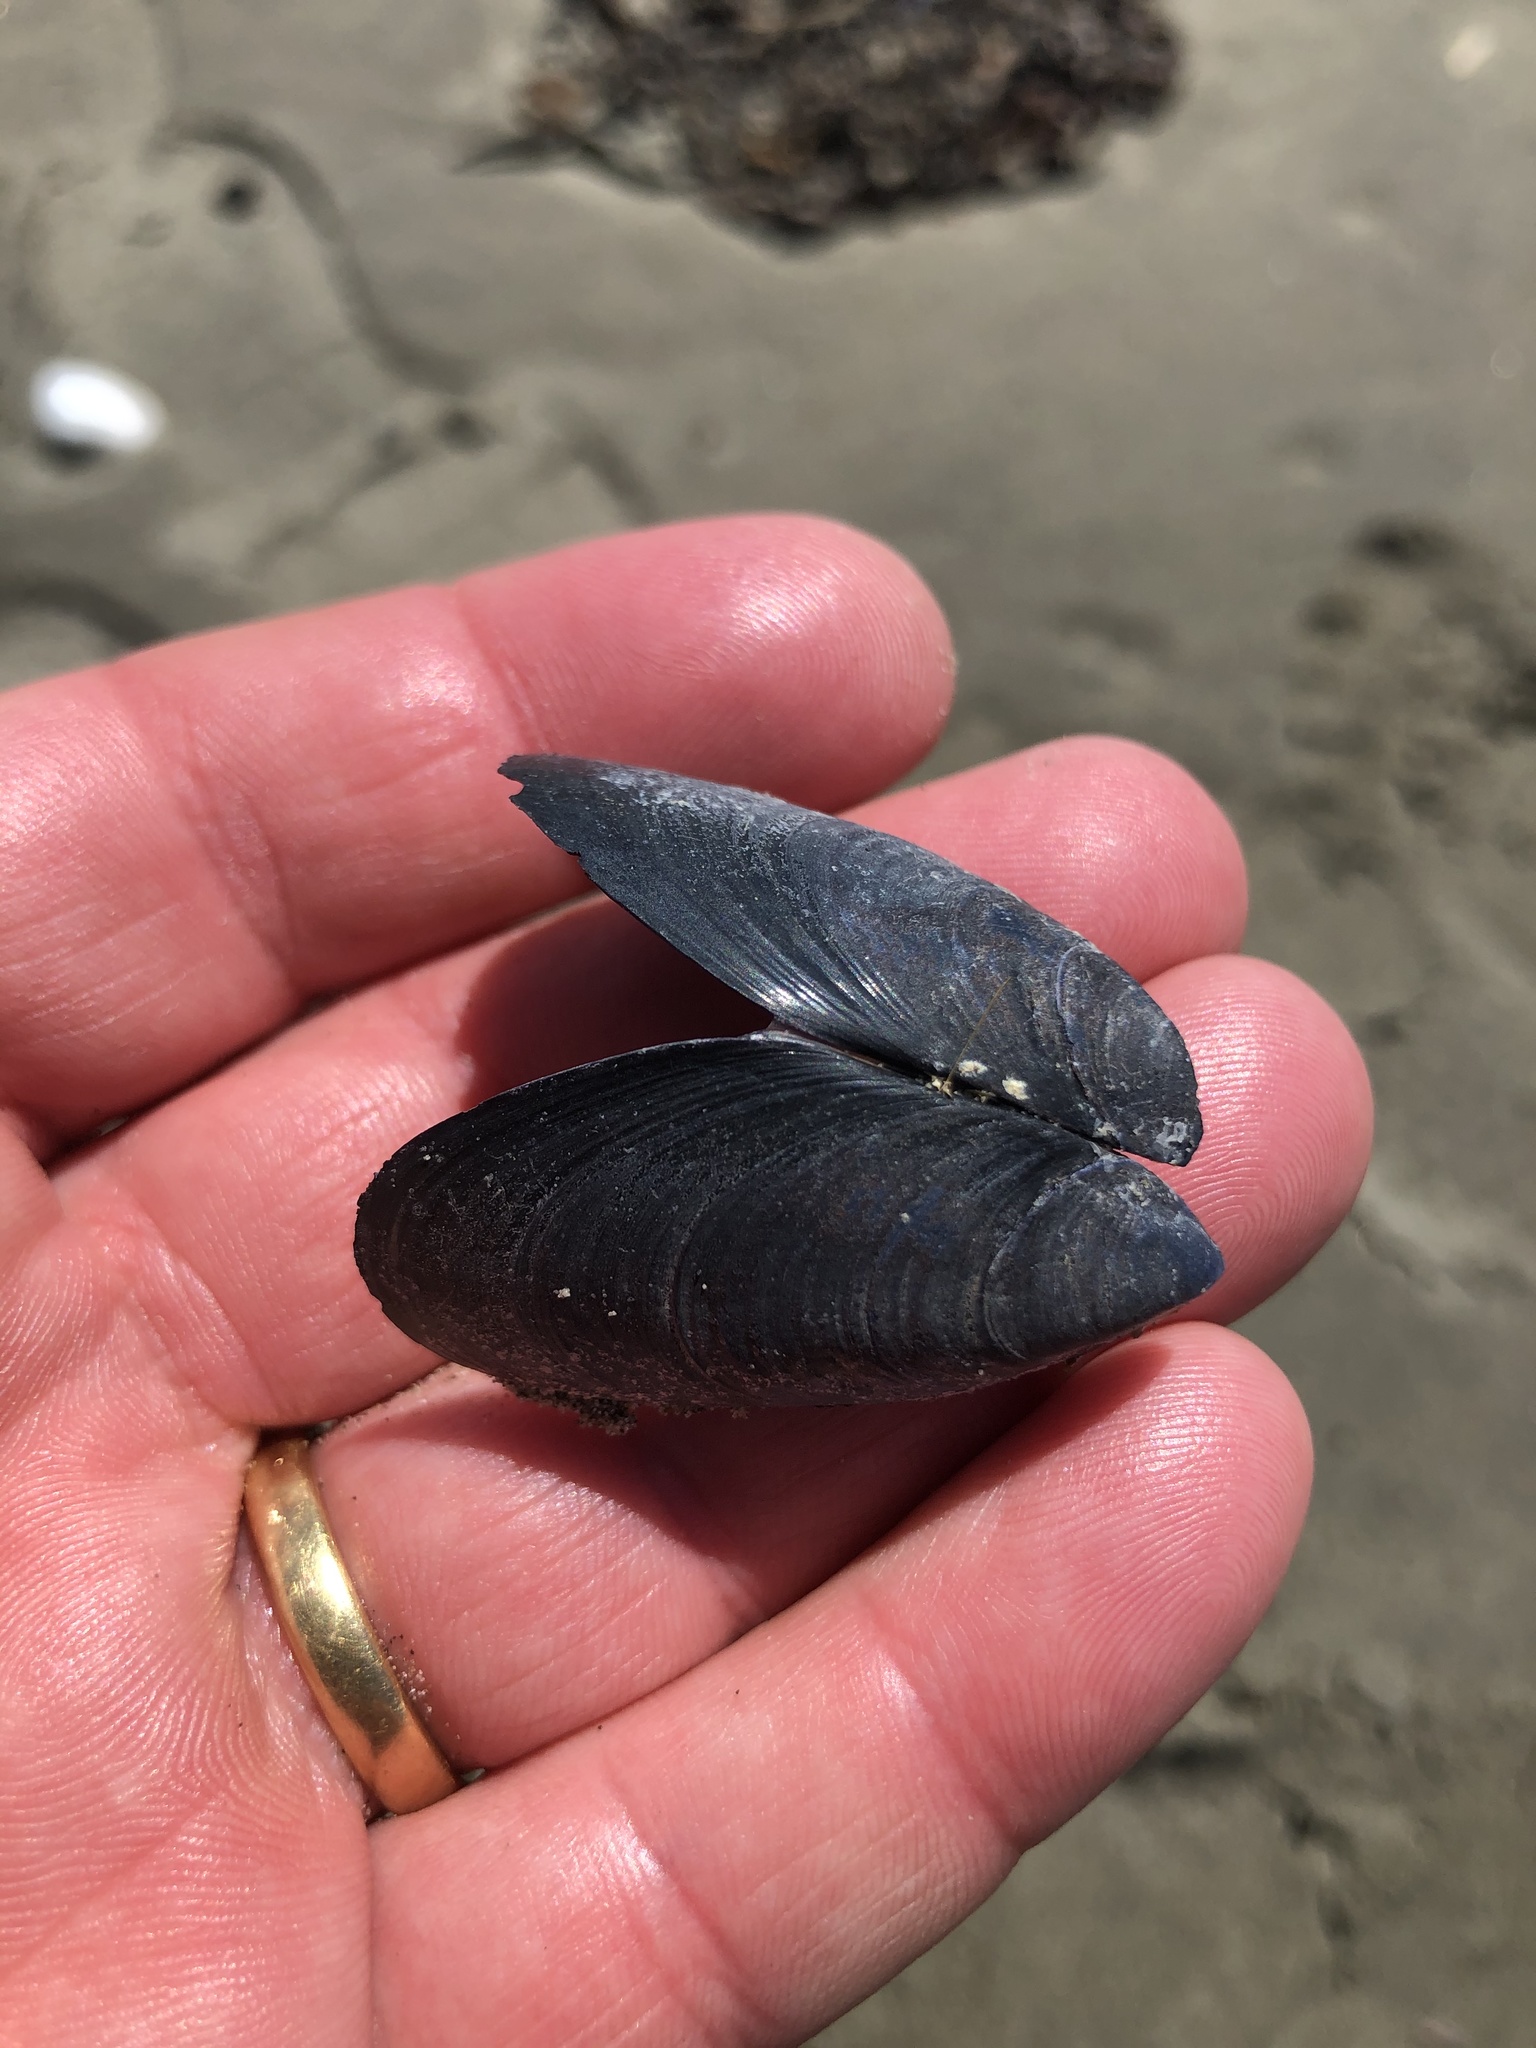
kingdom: Animalia
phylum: Mollusca
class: Bivalvia
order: Mytilida
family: Mytilidae
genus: Mytilus
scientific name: Mytilus planulatus
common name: Australian mussel
